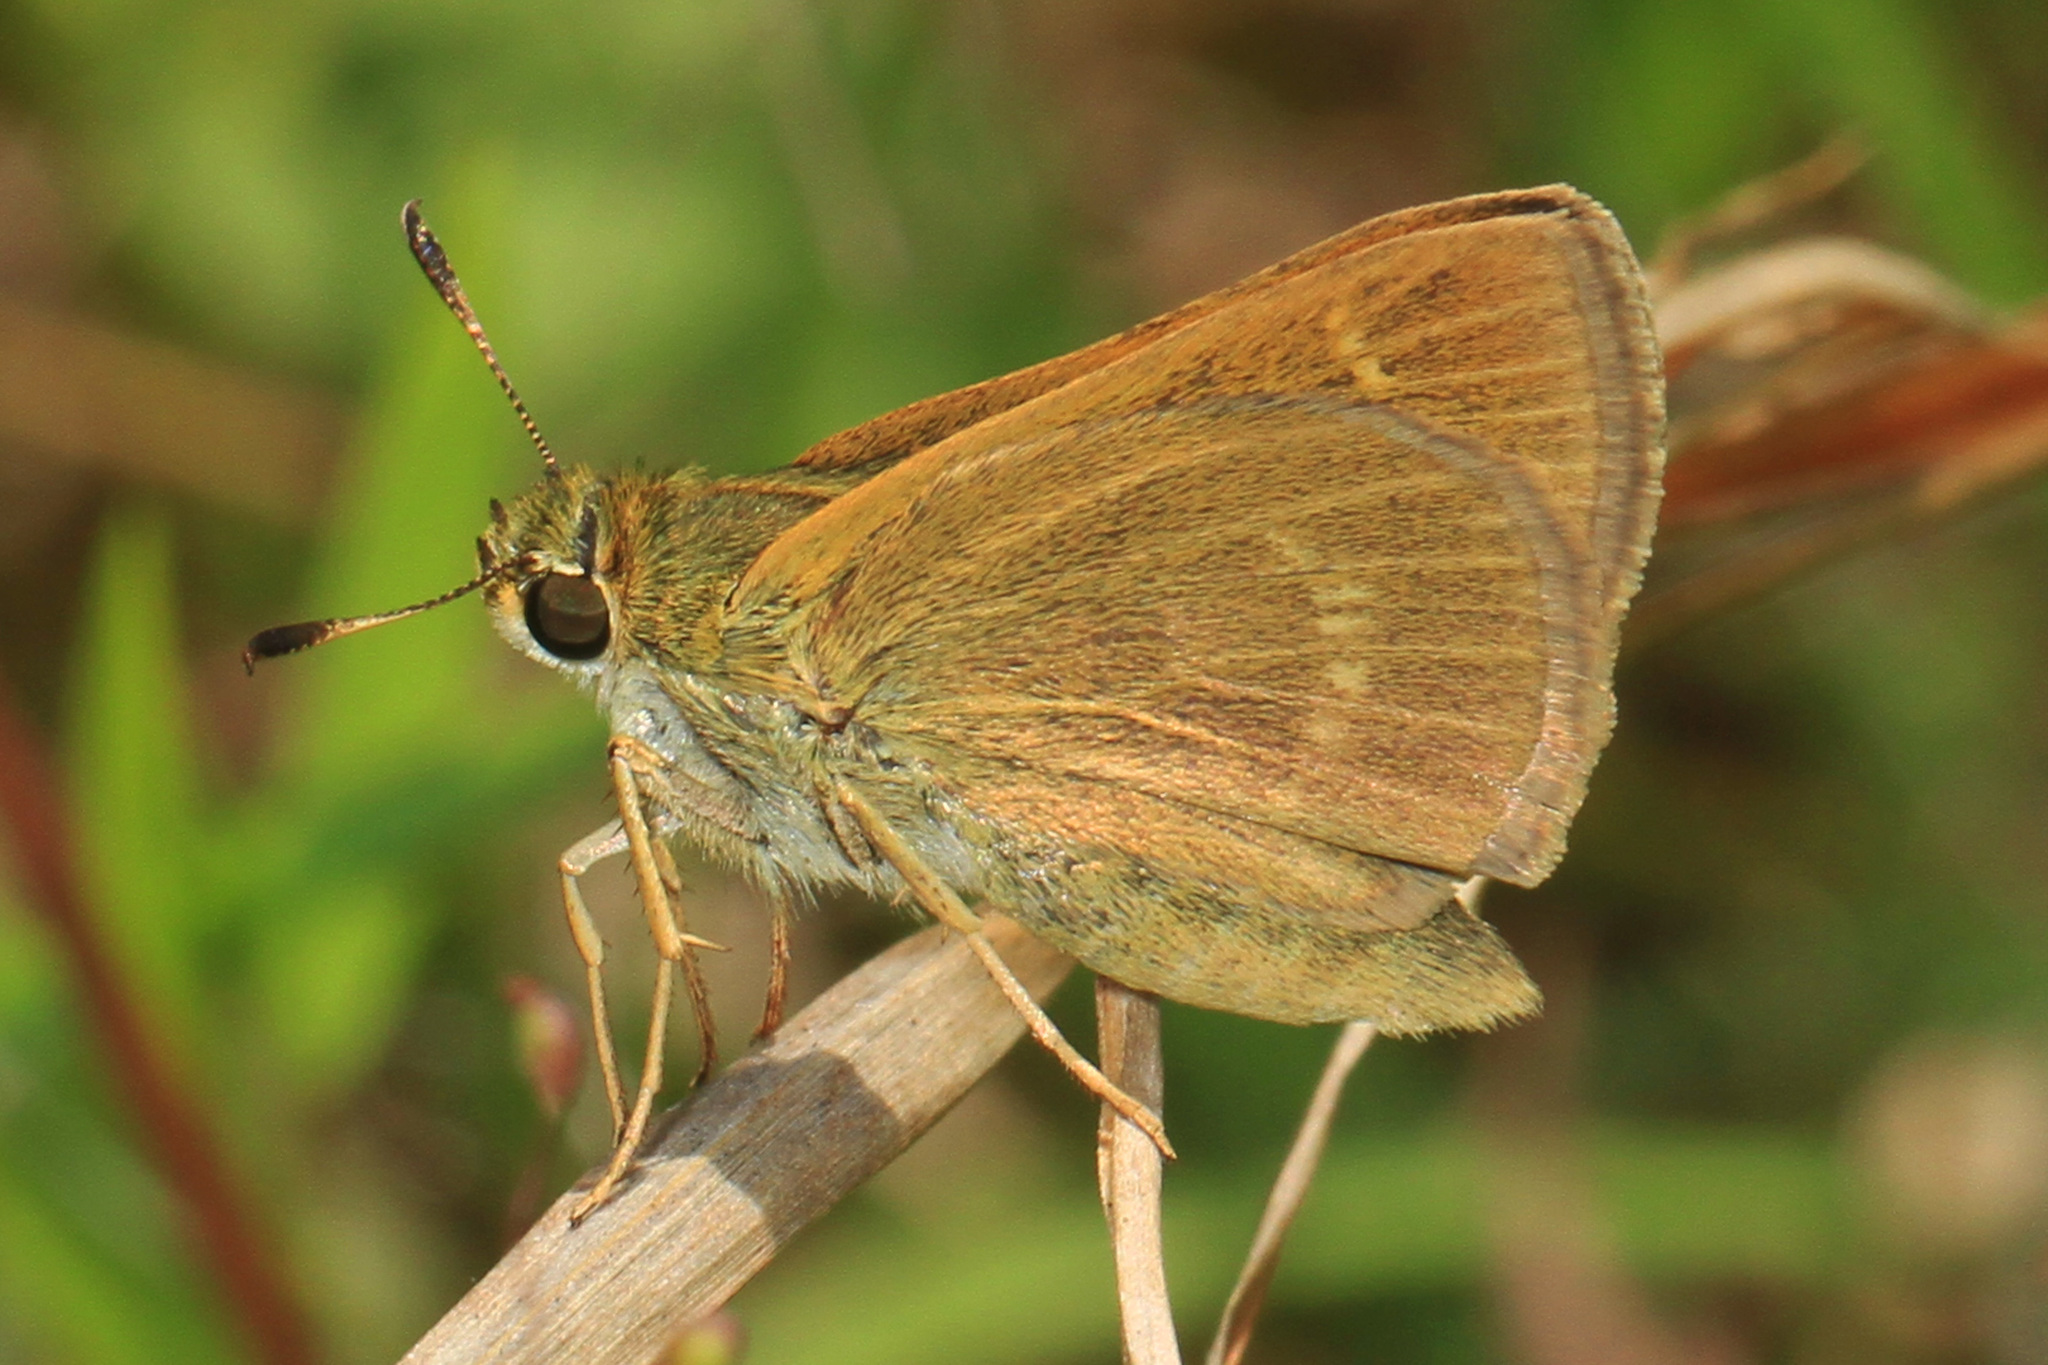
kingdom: Animalia
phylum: Arthropoda
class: Insecta
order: Lepidoptera
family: Hesperiidae
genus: Polites
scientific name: Polites origenes
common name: Crossline skipper
